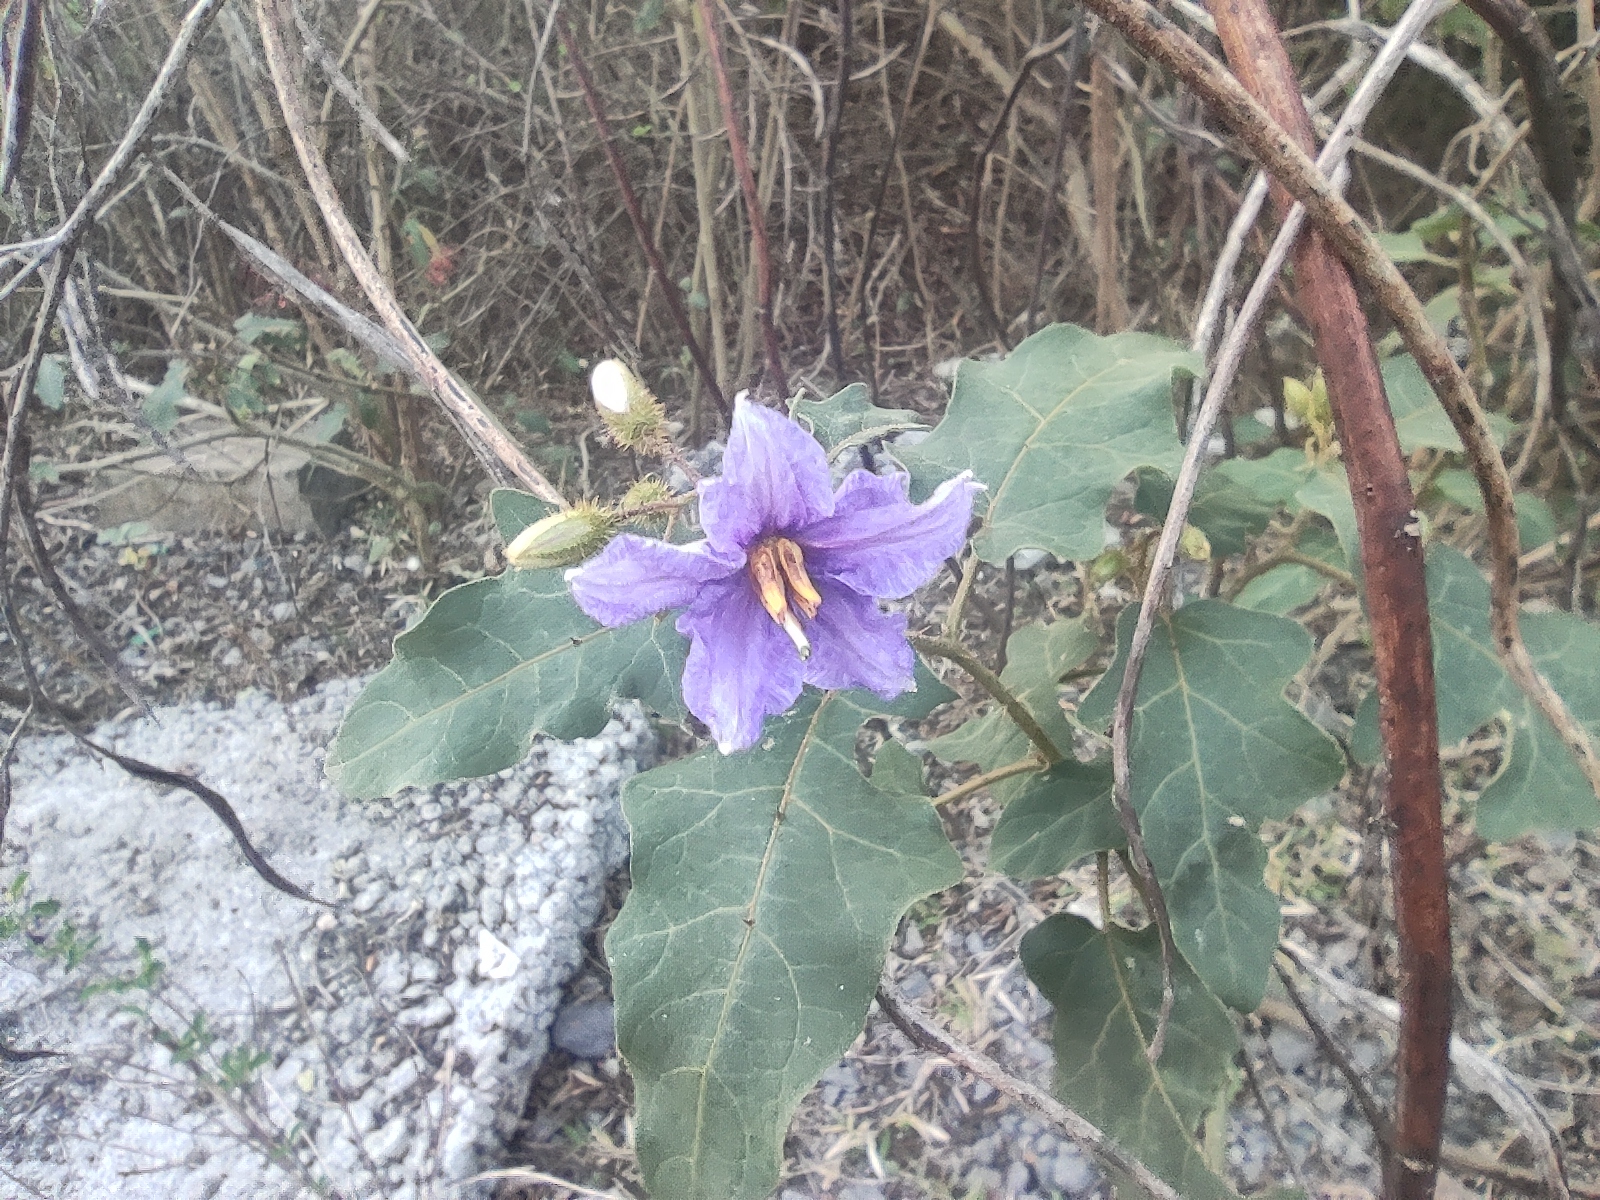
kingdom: Plantae
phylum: Tracheophyta
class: Magnoliopsida
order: Solanales
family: Solanaceae
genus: Solanum
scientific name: Solanum mauritianum
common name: Earleaf nightshade
